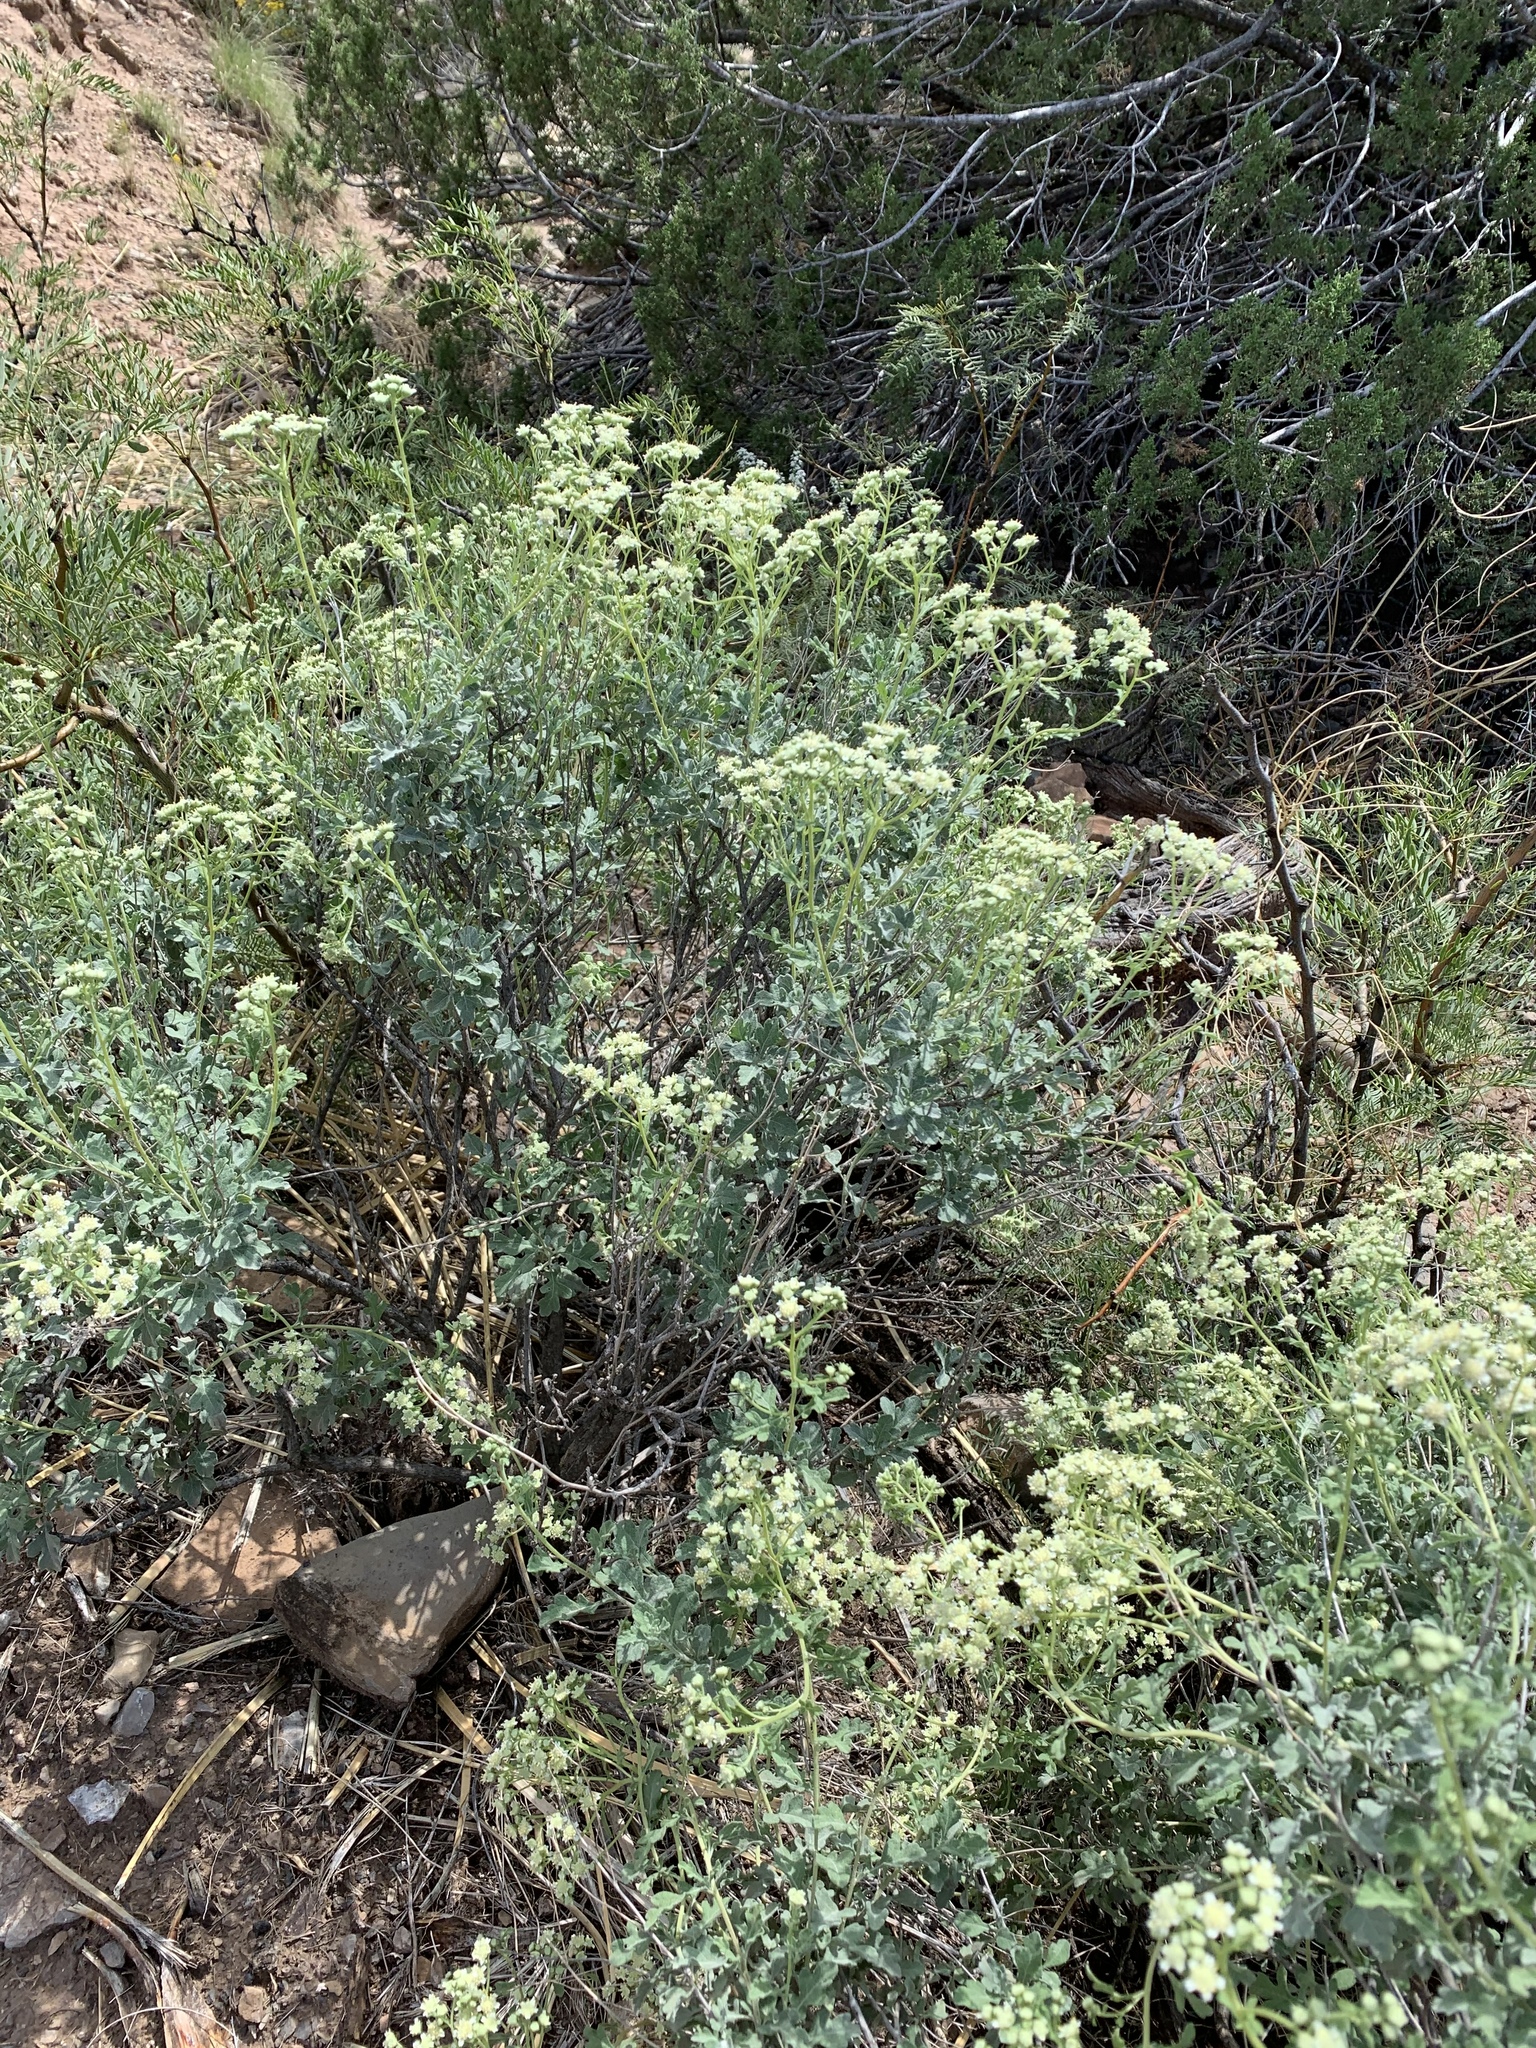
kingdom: Plantae
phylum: Tracheophyta
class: Magnoliopsida
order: Asterales
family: Asteraceae
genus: Parthenium
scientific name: Parthenium incanum
